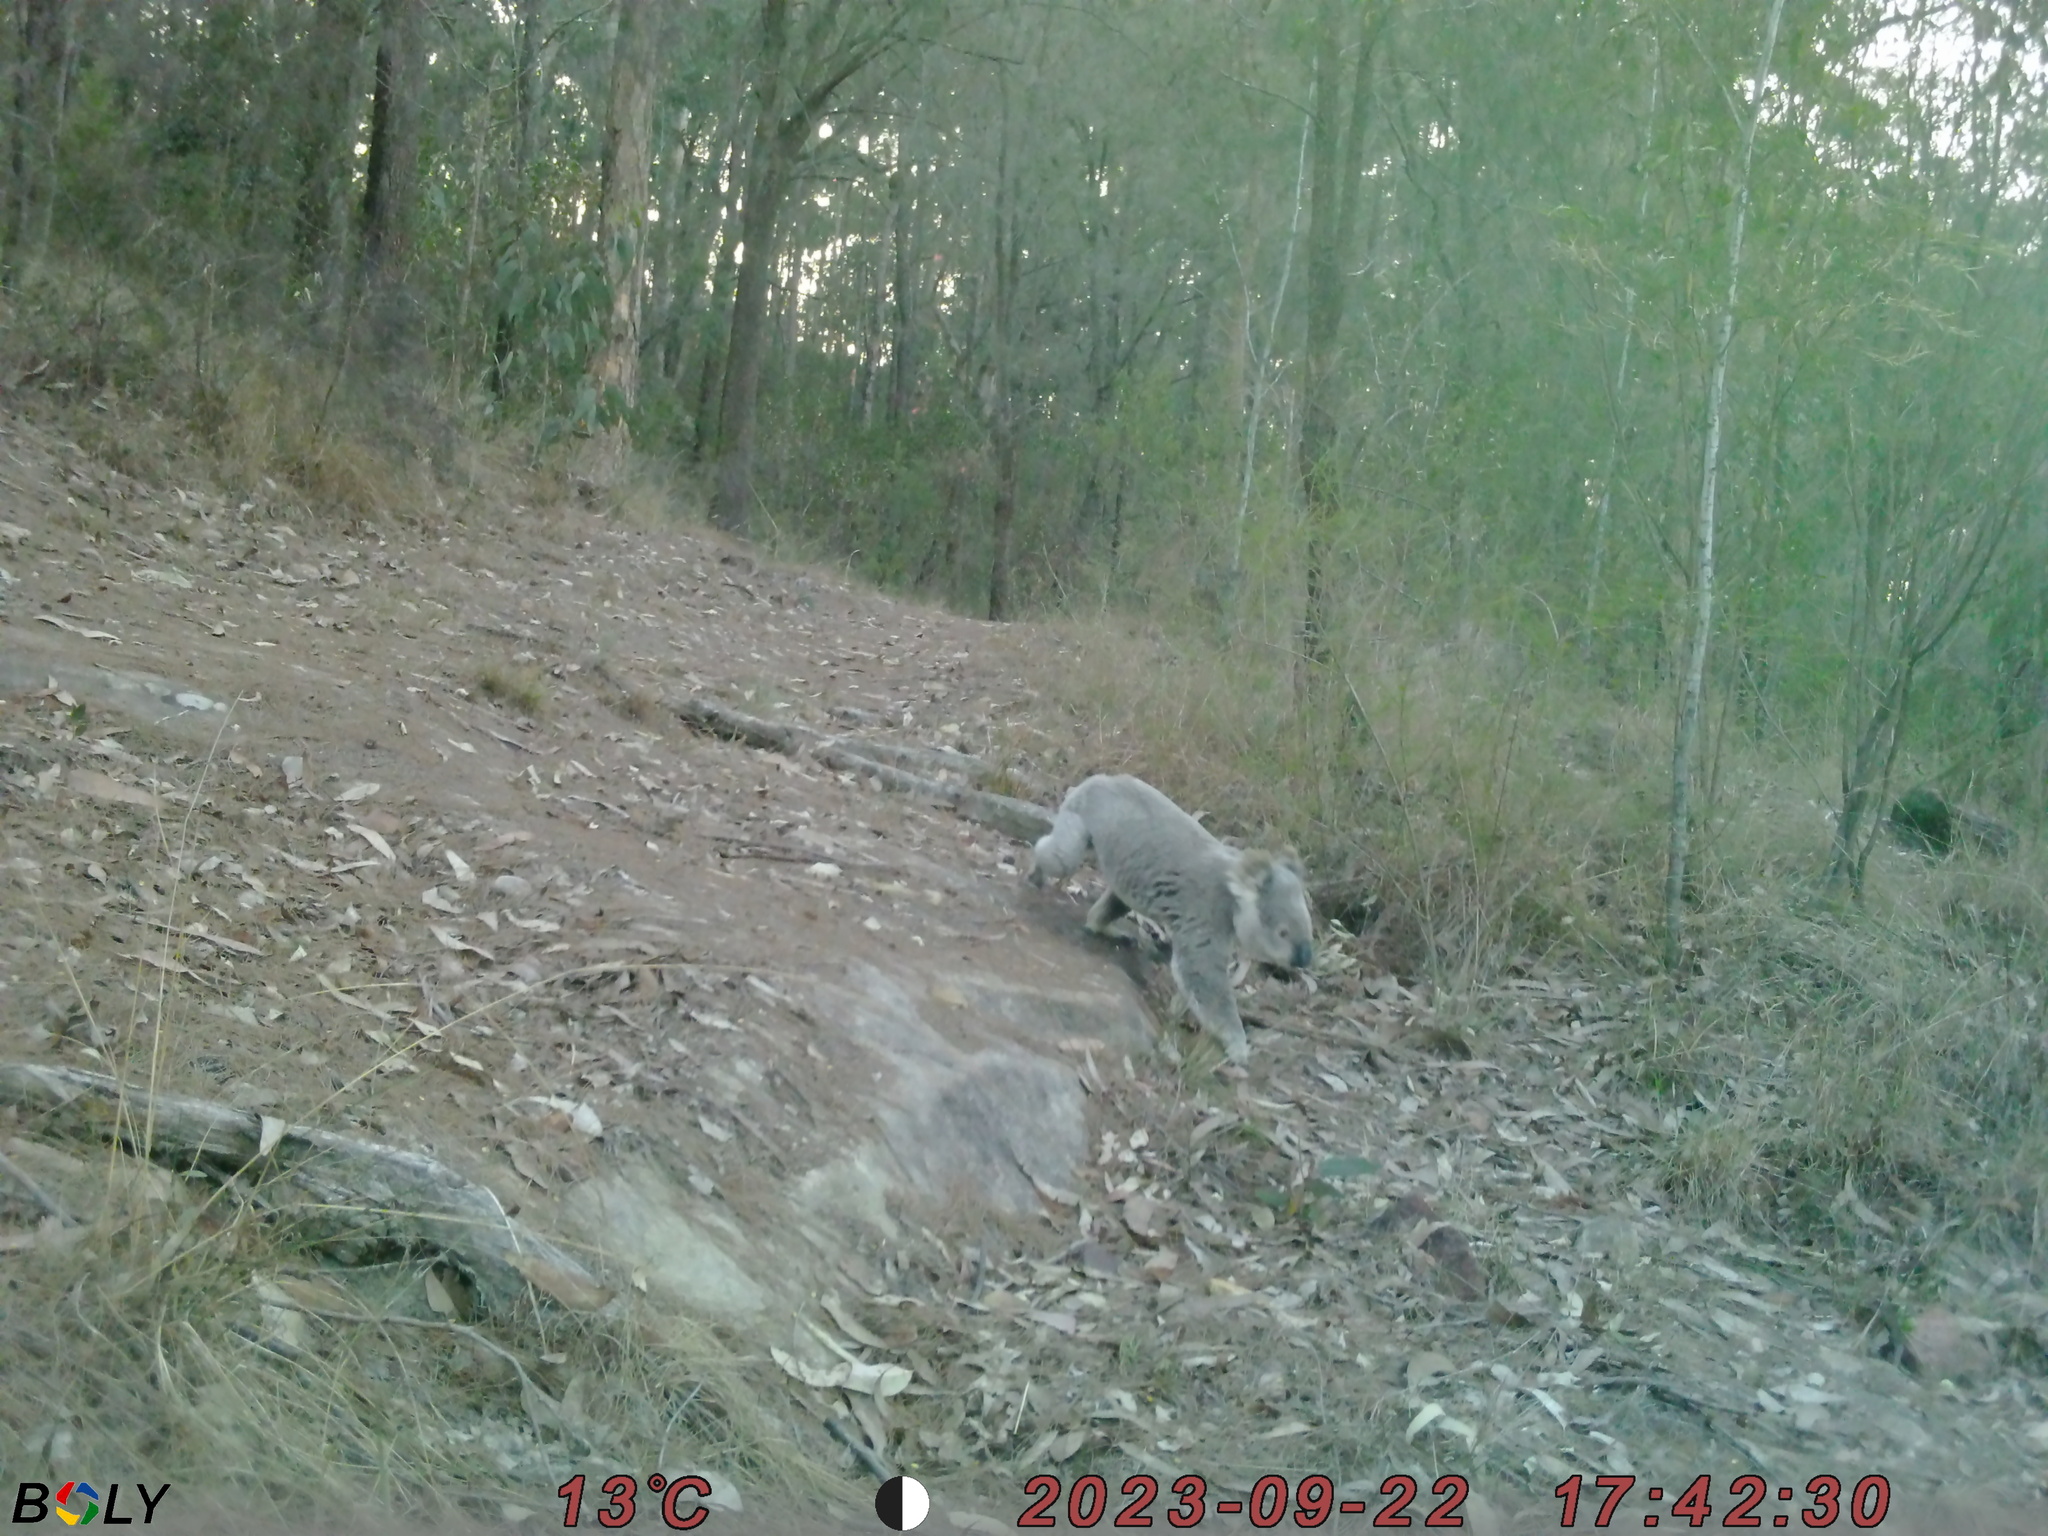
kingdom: Animalia
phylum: Chordata
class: Mammalia
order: Diprotodontia
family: Phascolarctidae
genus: Phascolarctos
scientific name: Phascolarctos cinereus
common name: Koala
